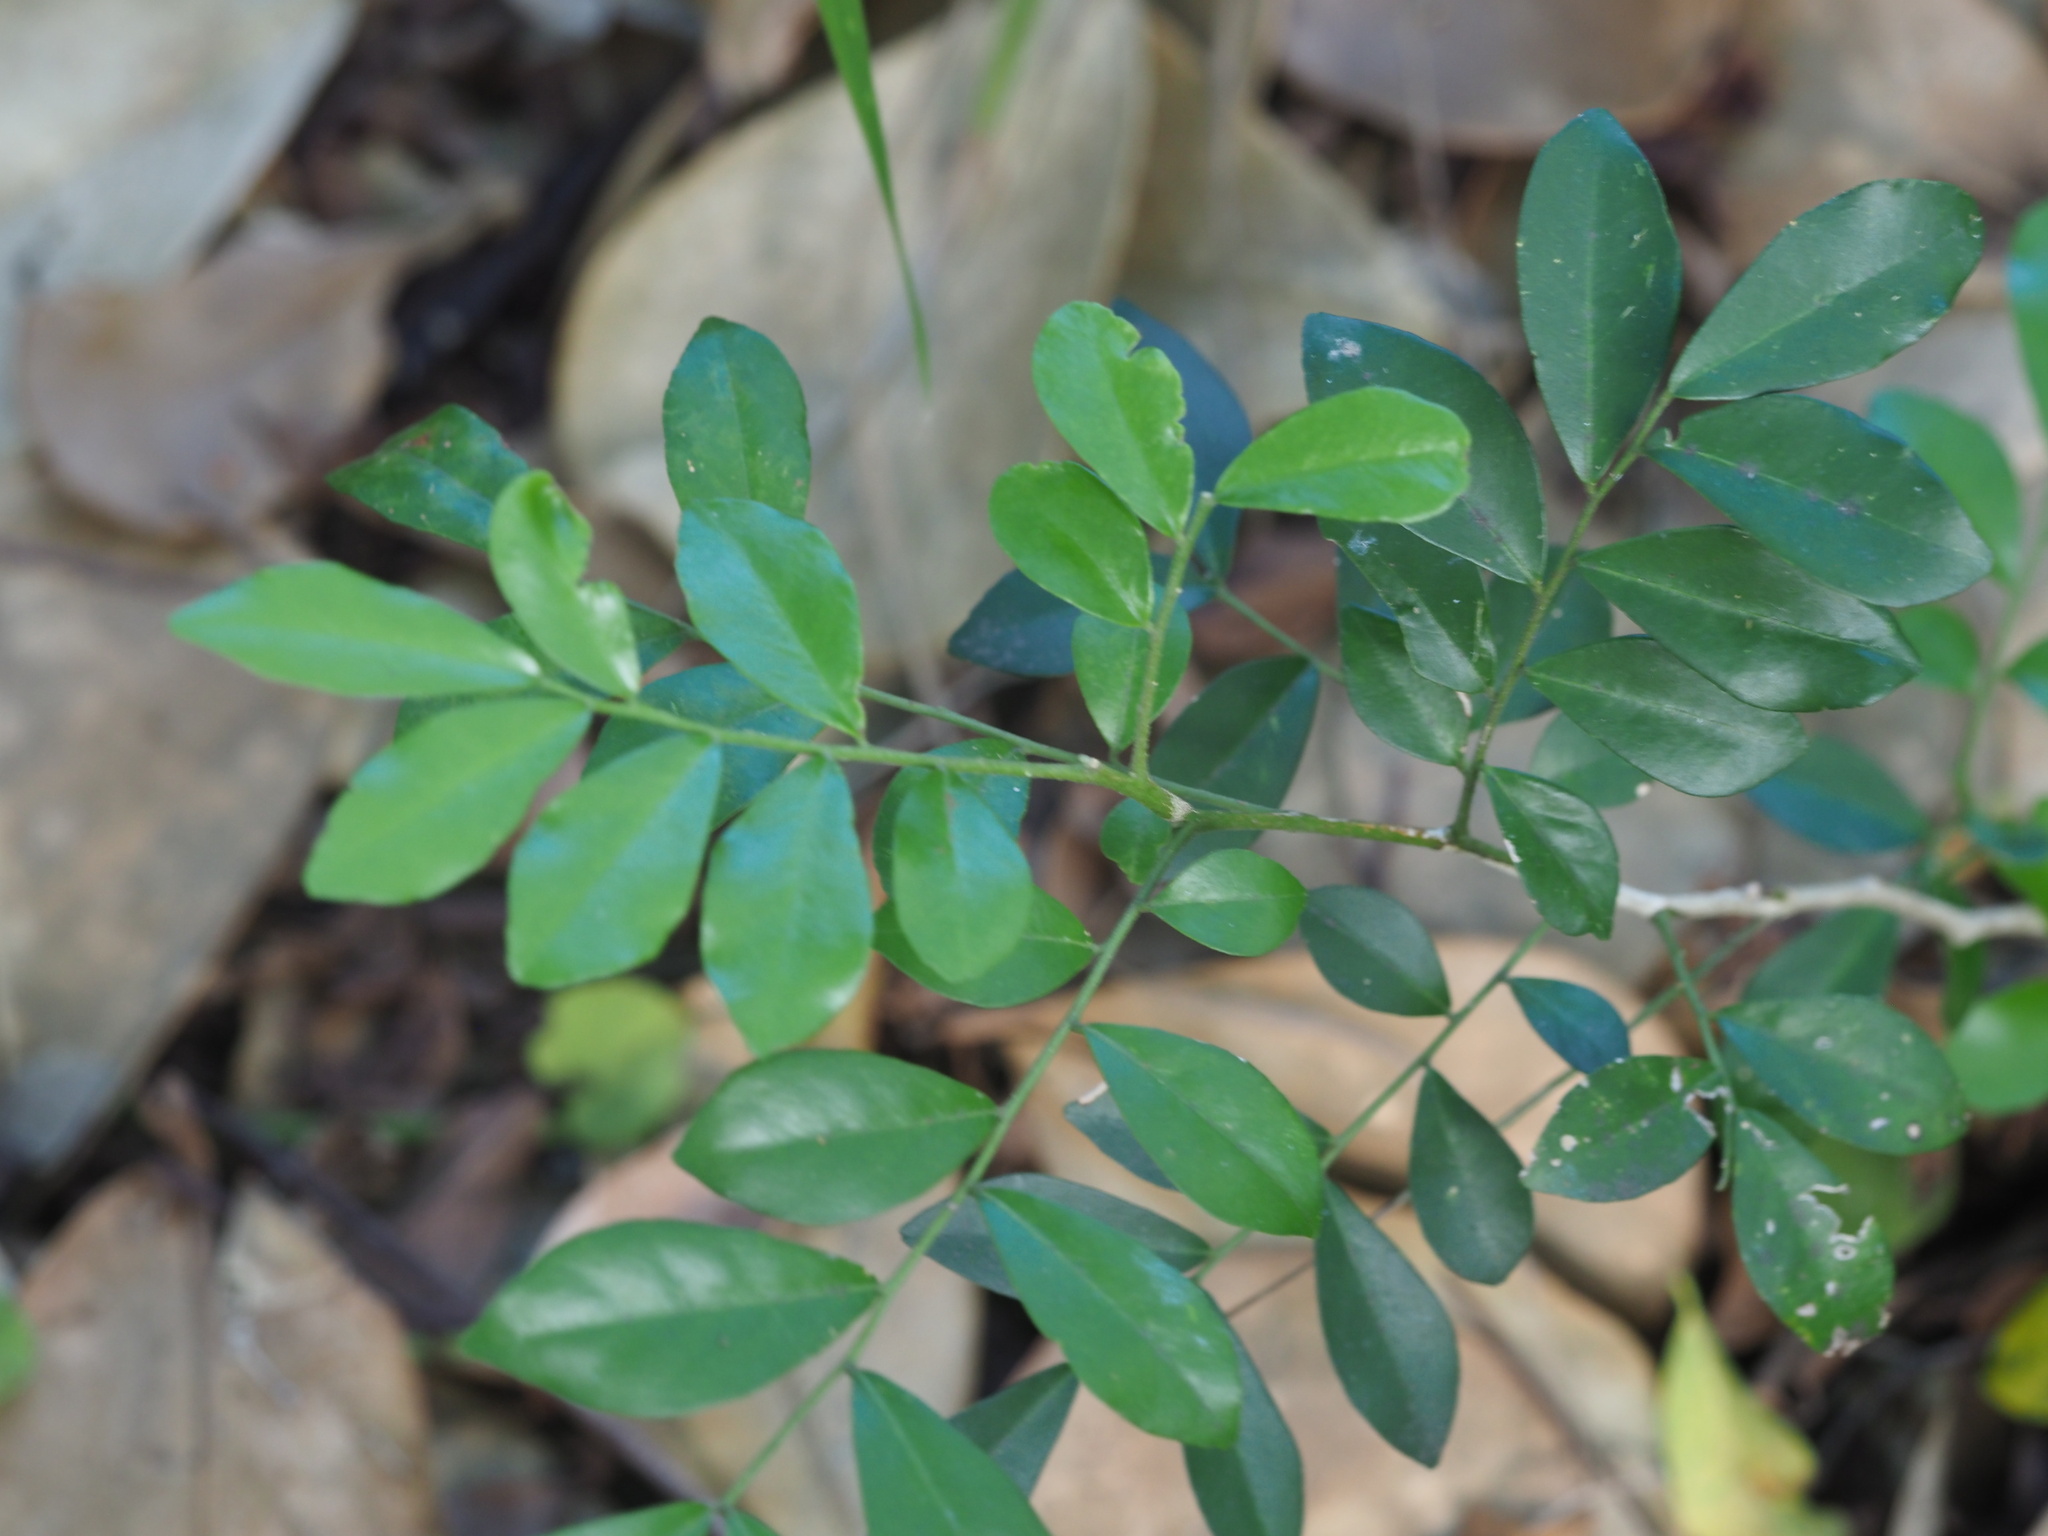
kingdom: Plantae
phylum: Tracheophyta
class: Magnoliopsida
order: Sapindales
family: Rutaceae
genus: Murraya
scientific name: Murraya paniculata
